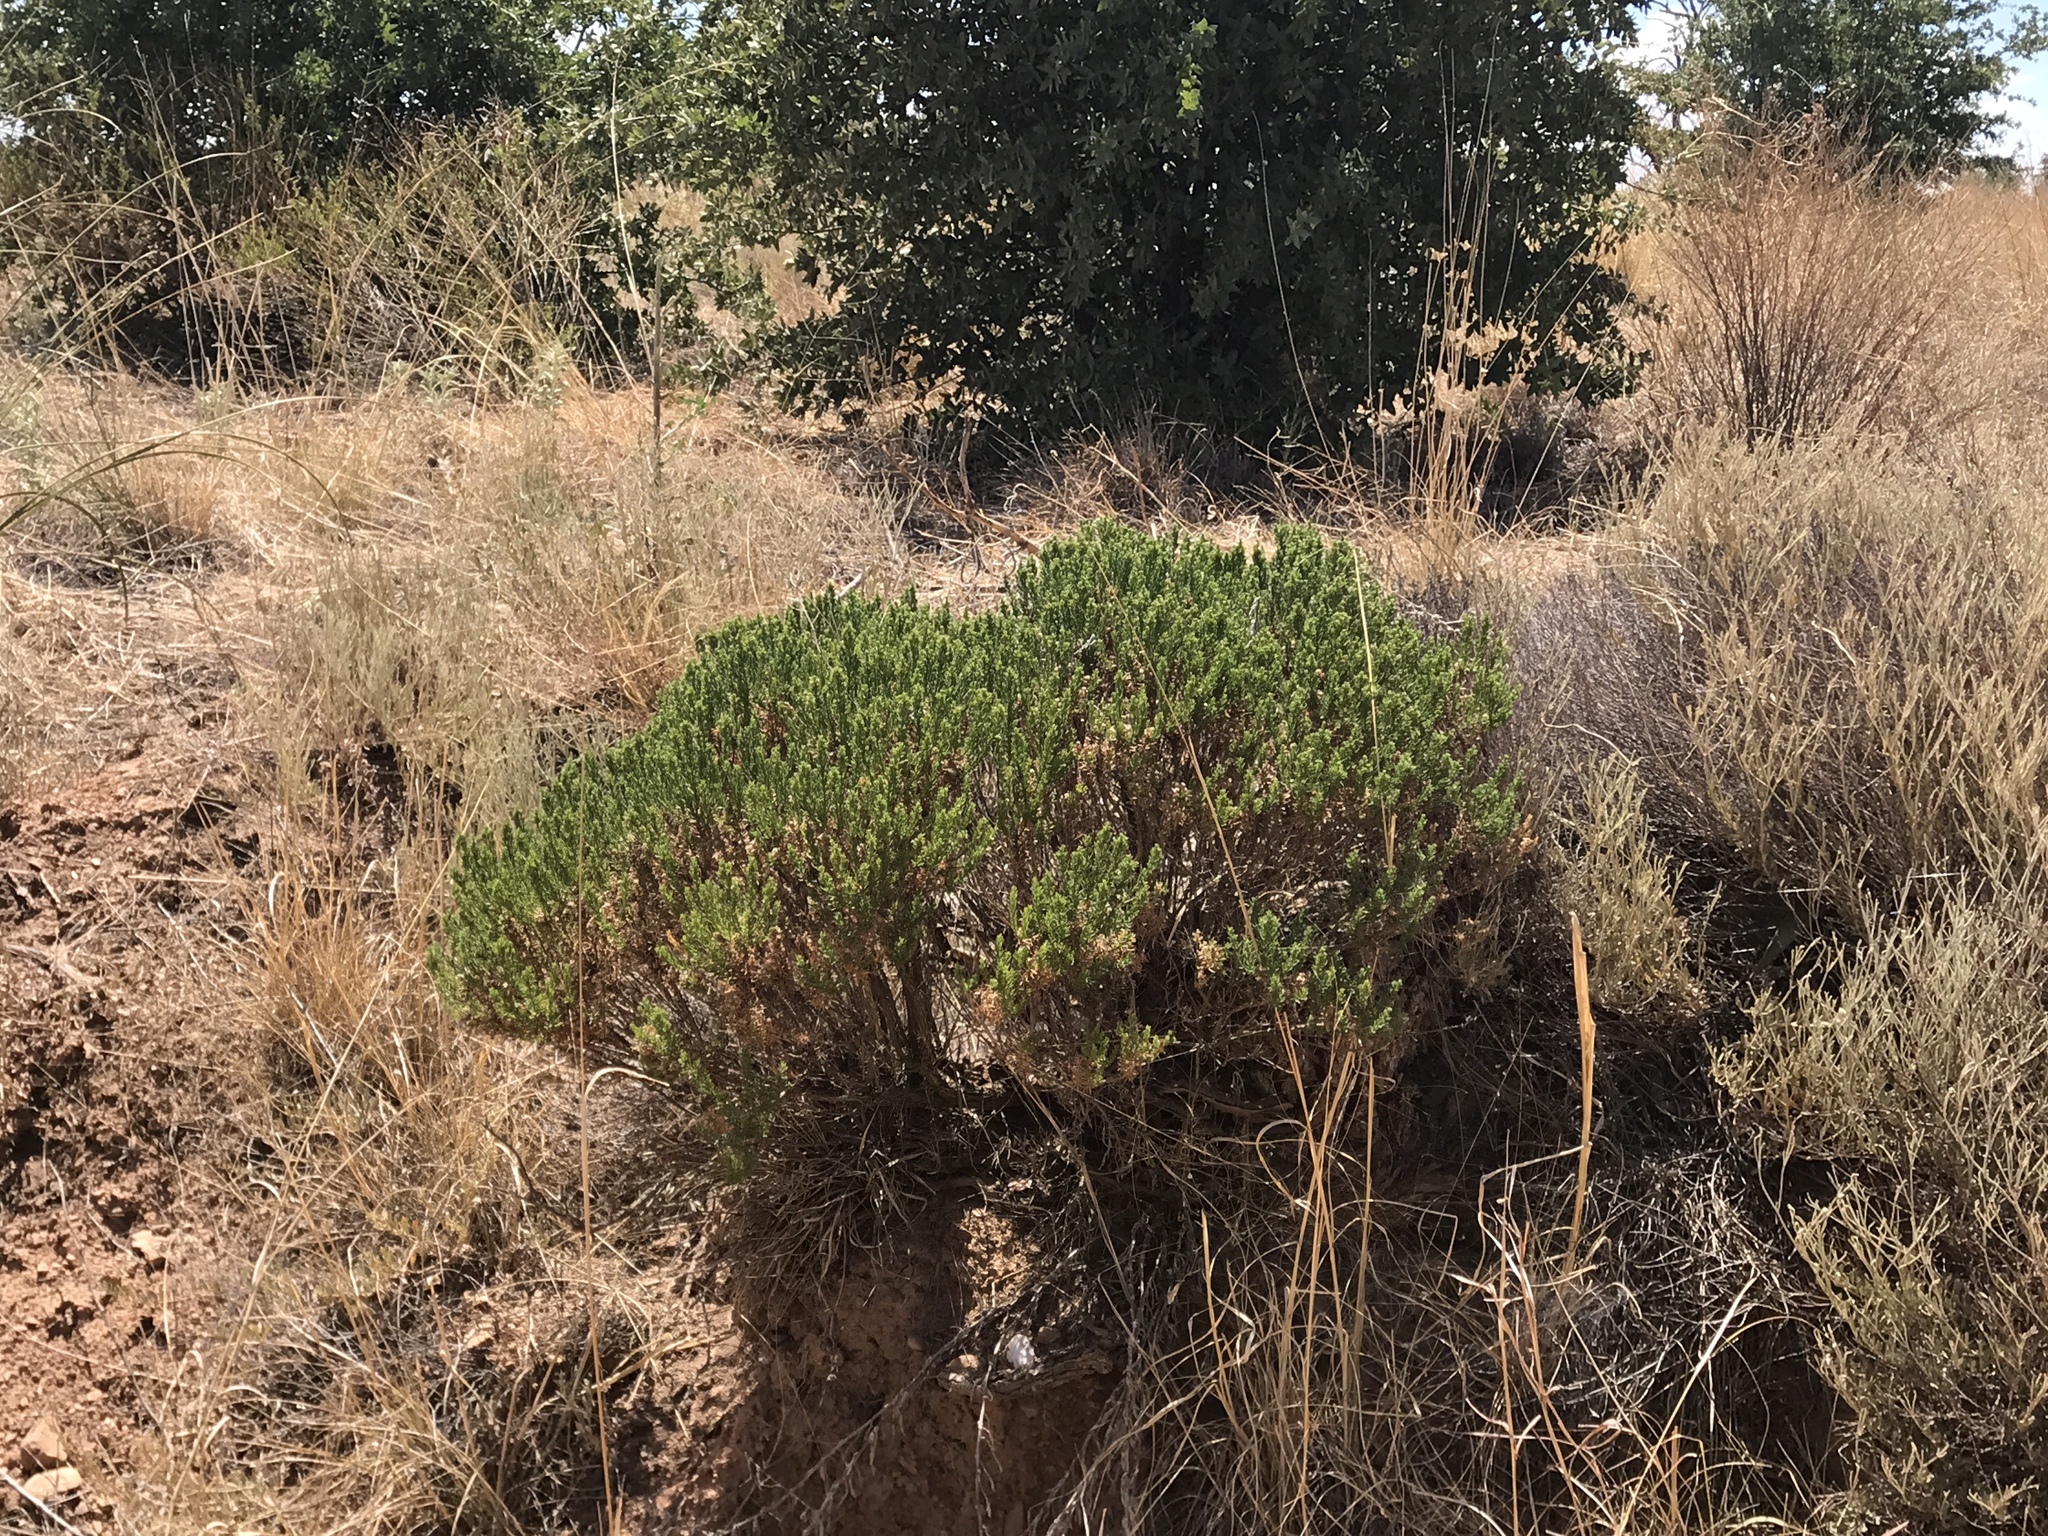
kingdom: Plantae
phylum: Tracheophyta
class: Magnoliopsida
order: Asterales
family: Asteraceae
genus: Ericameria
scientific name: Ericameria laricifolia
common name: Turpentine-bush
